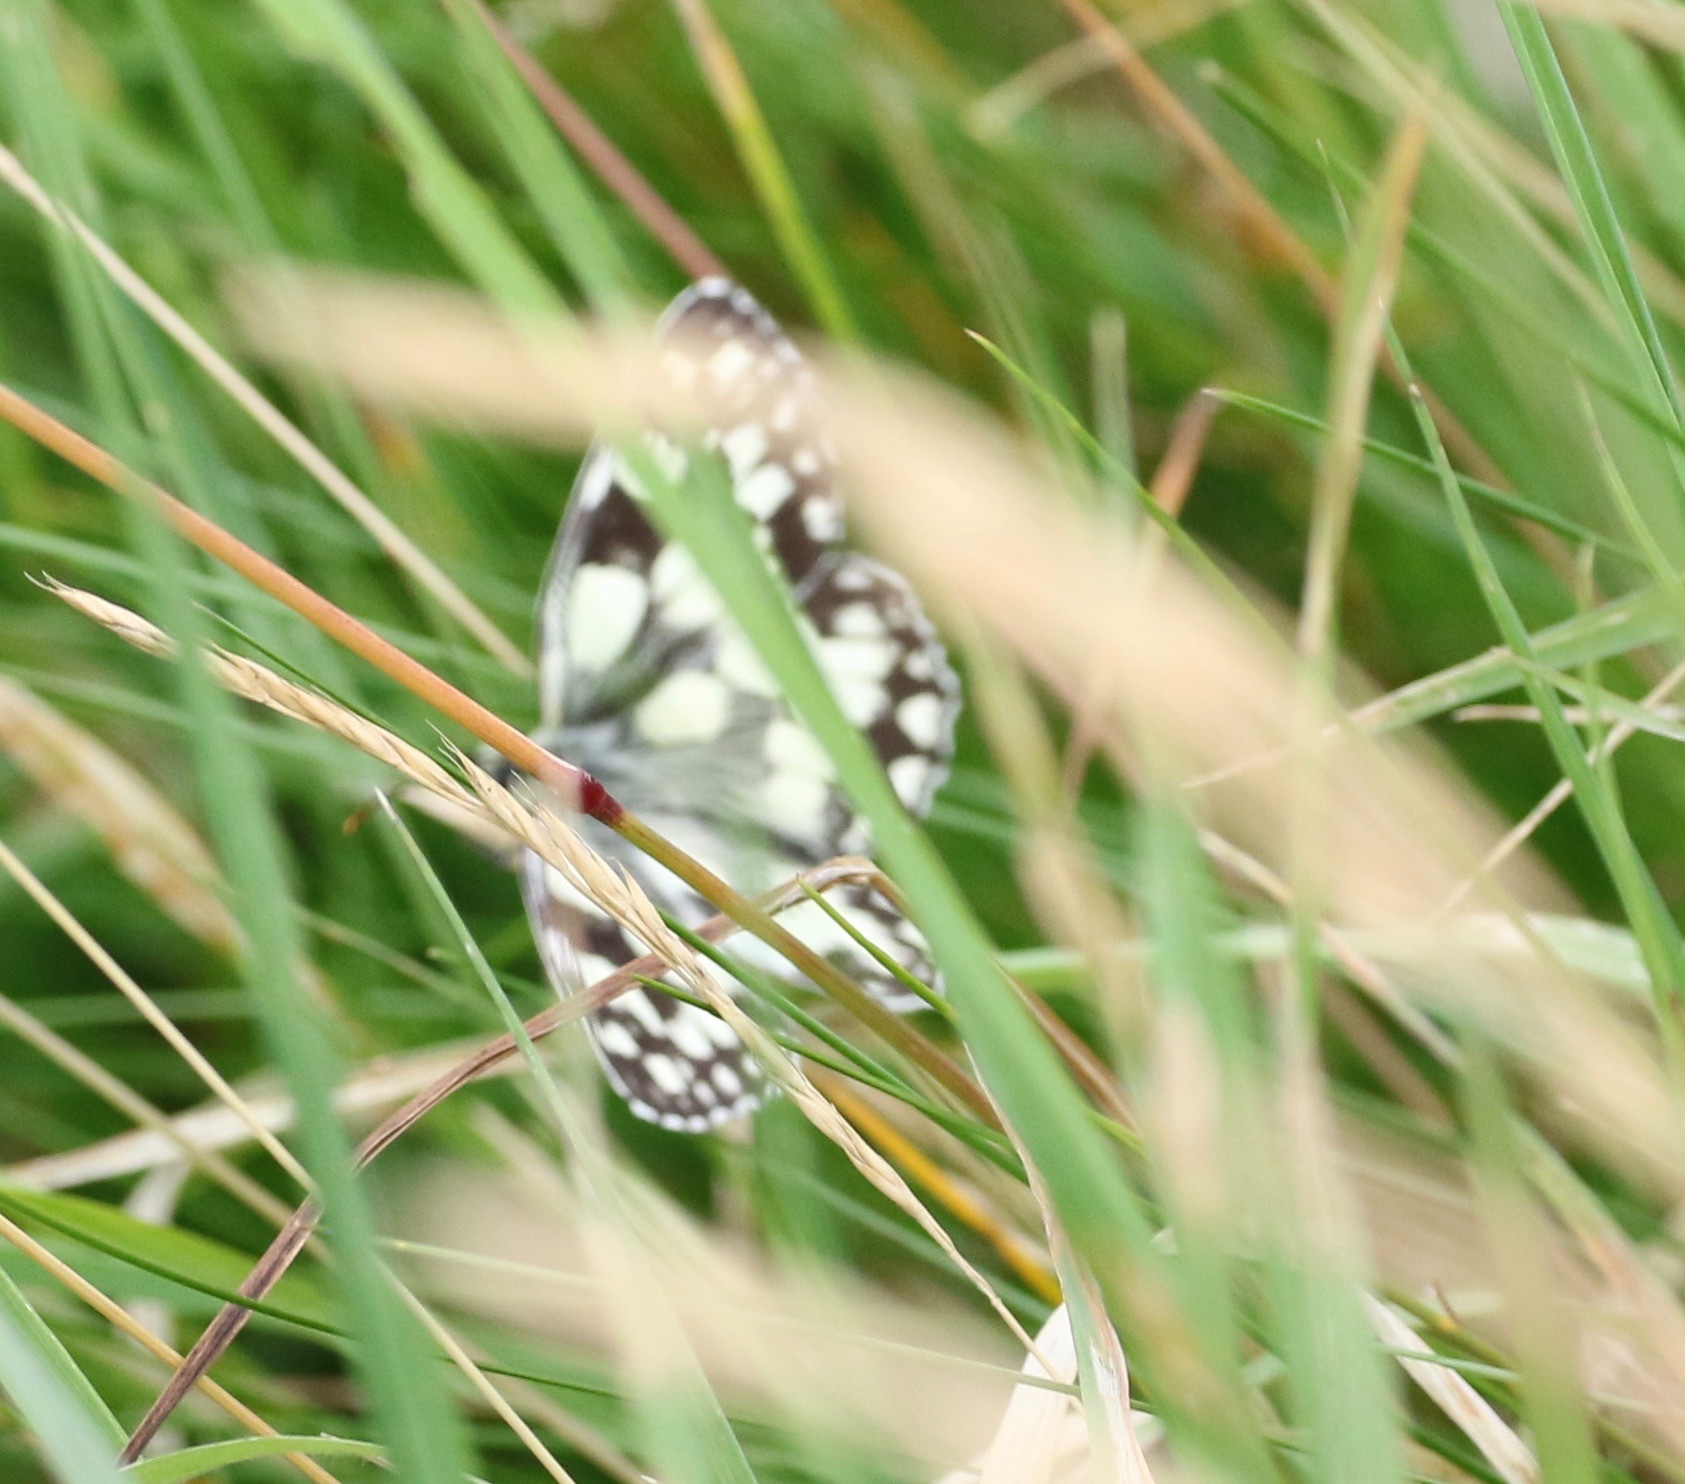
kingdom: Animalia
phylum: Arthropoda
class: Insecta
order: Lepidoptera
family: Nymphalidae
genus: Melanargia
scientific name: Melanargia galathea
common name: Marbled white
